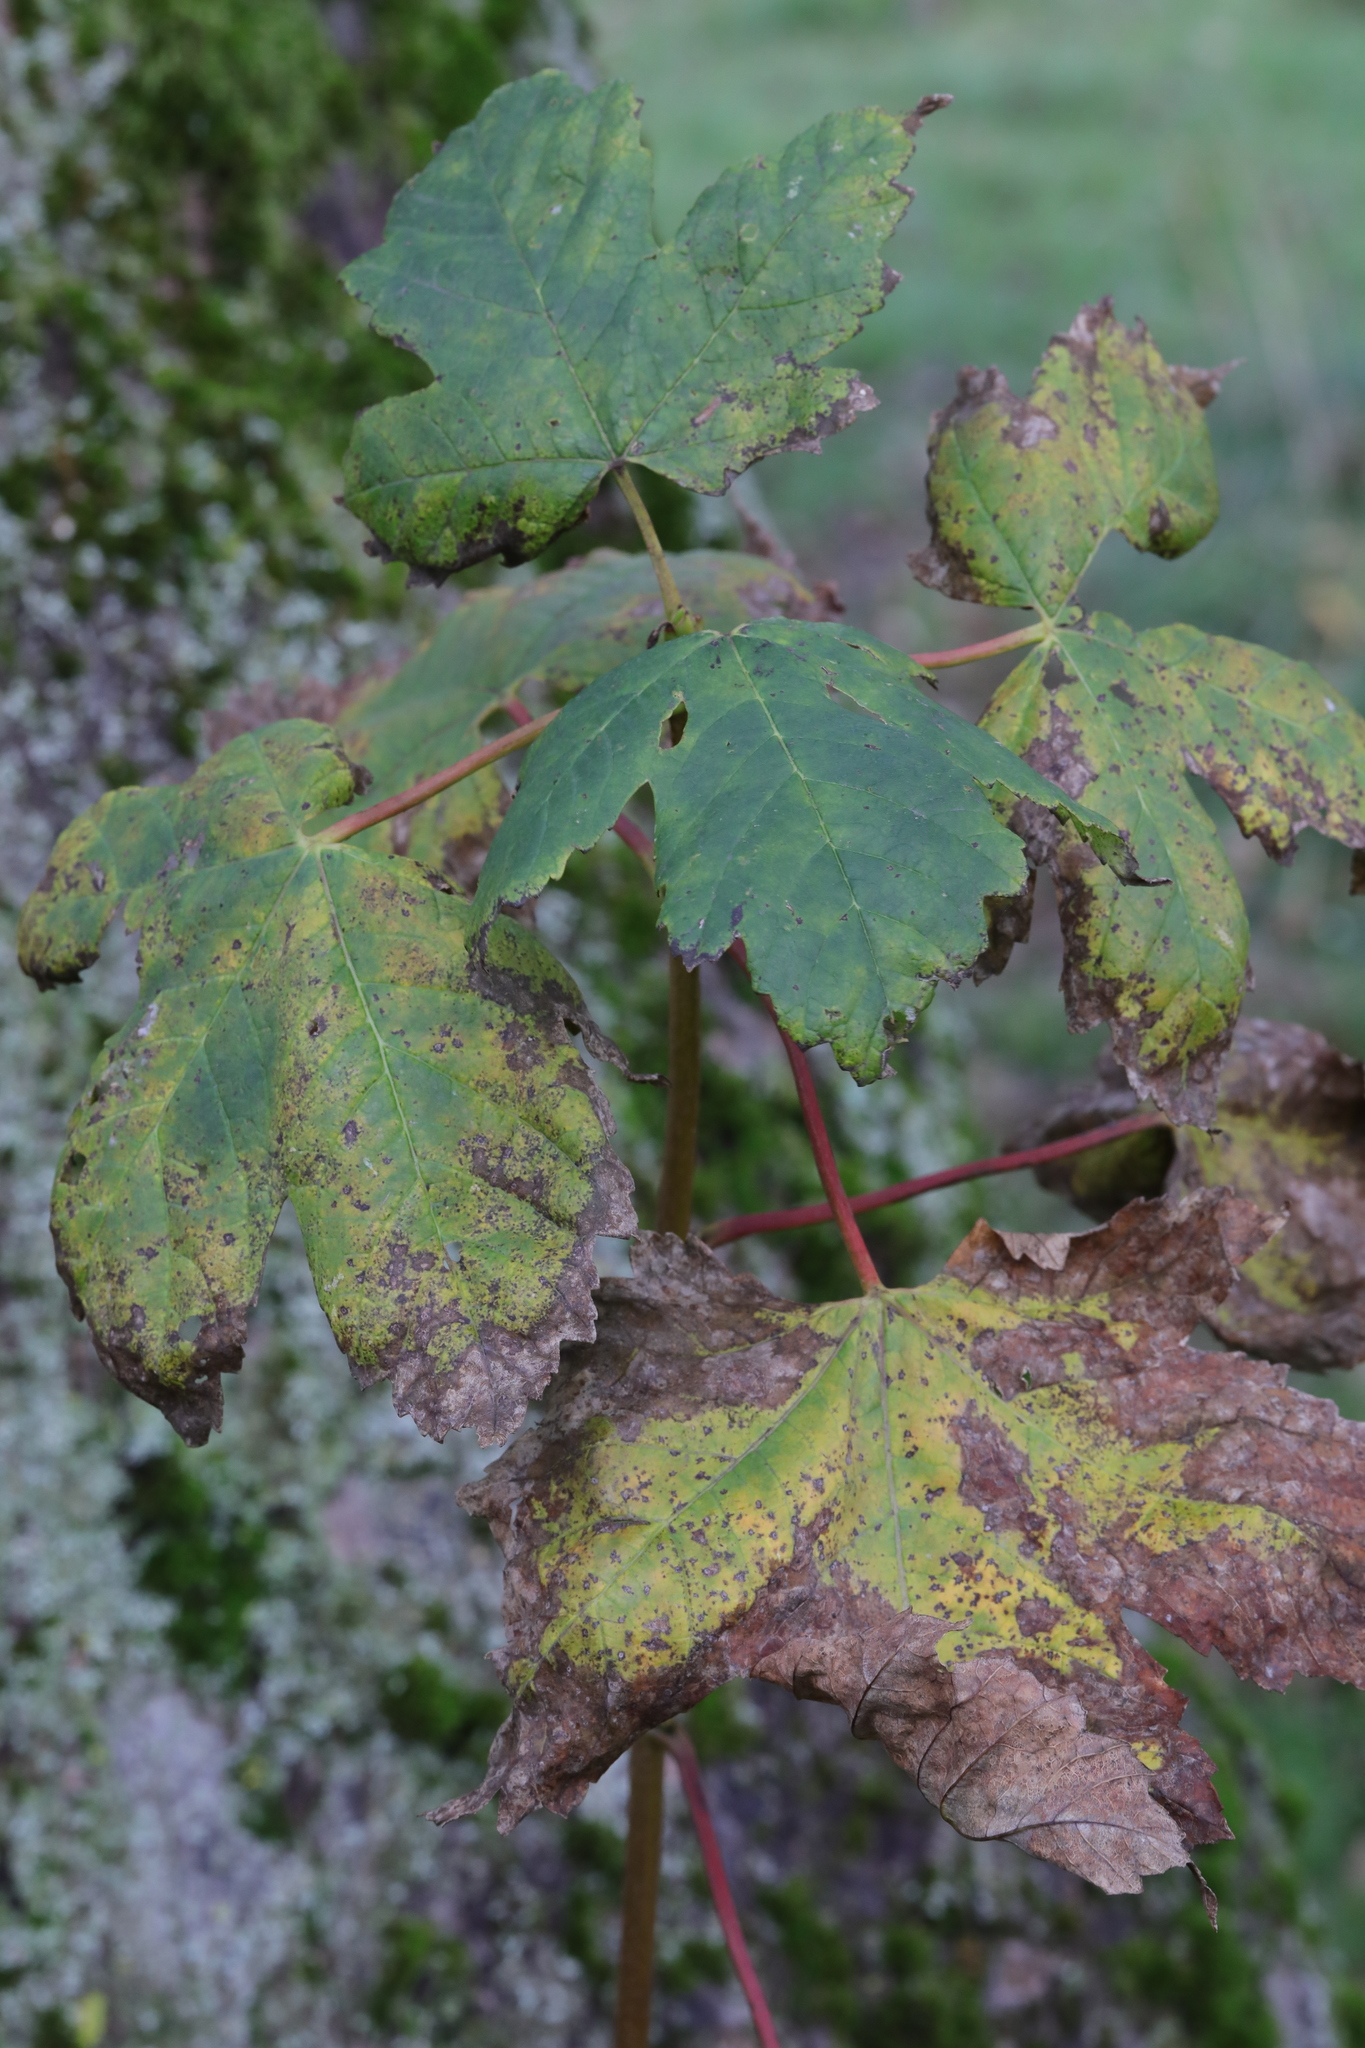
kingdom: Plantae
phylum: Tracheophyta
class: Magnoliopsida
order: Sapindales
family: Sapindaceae
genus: Acer
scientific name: Acer pseudoplatanus
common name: Sycamore
